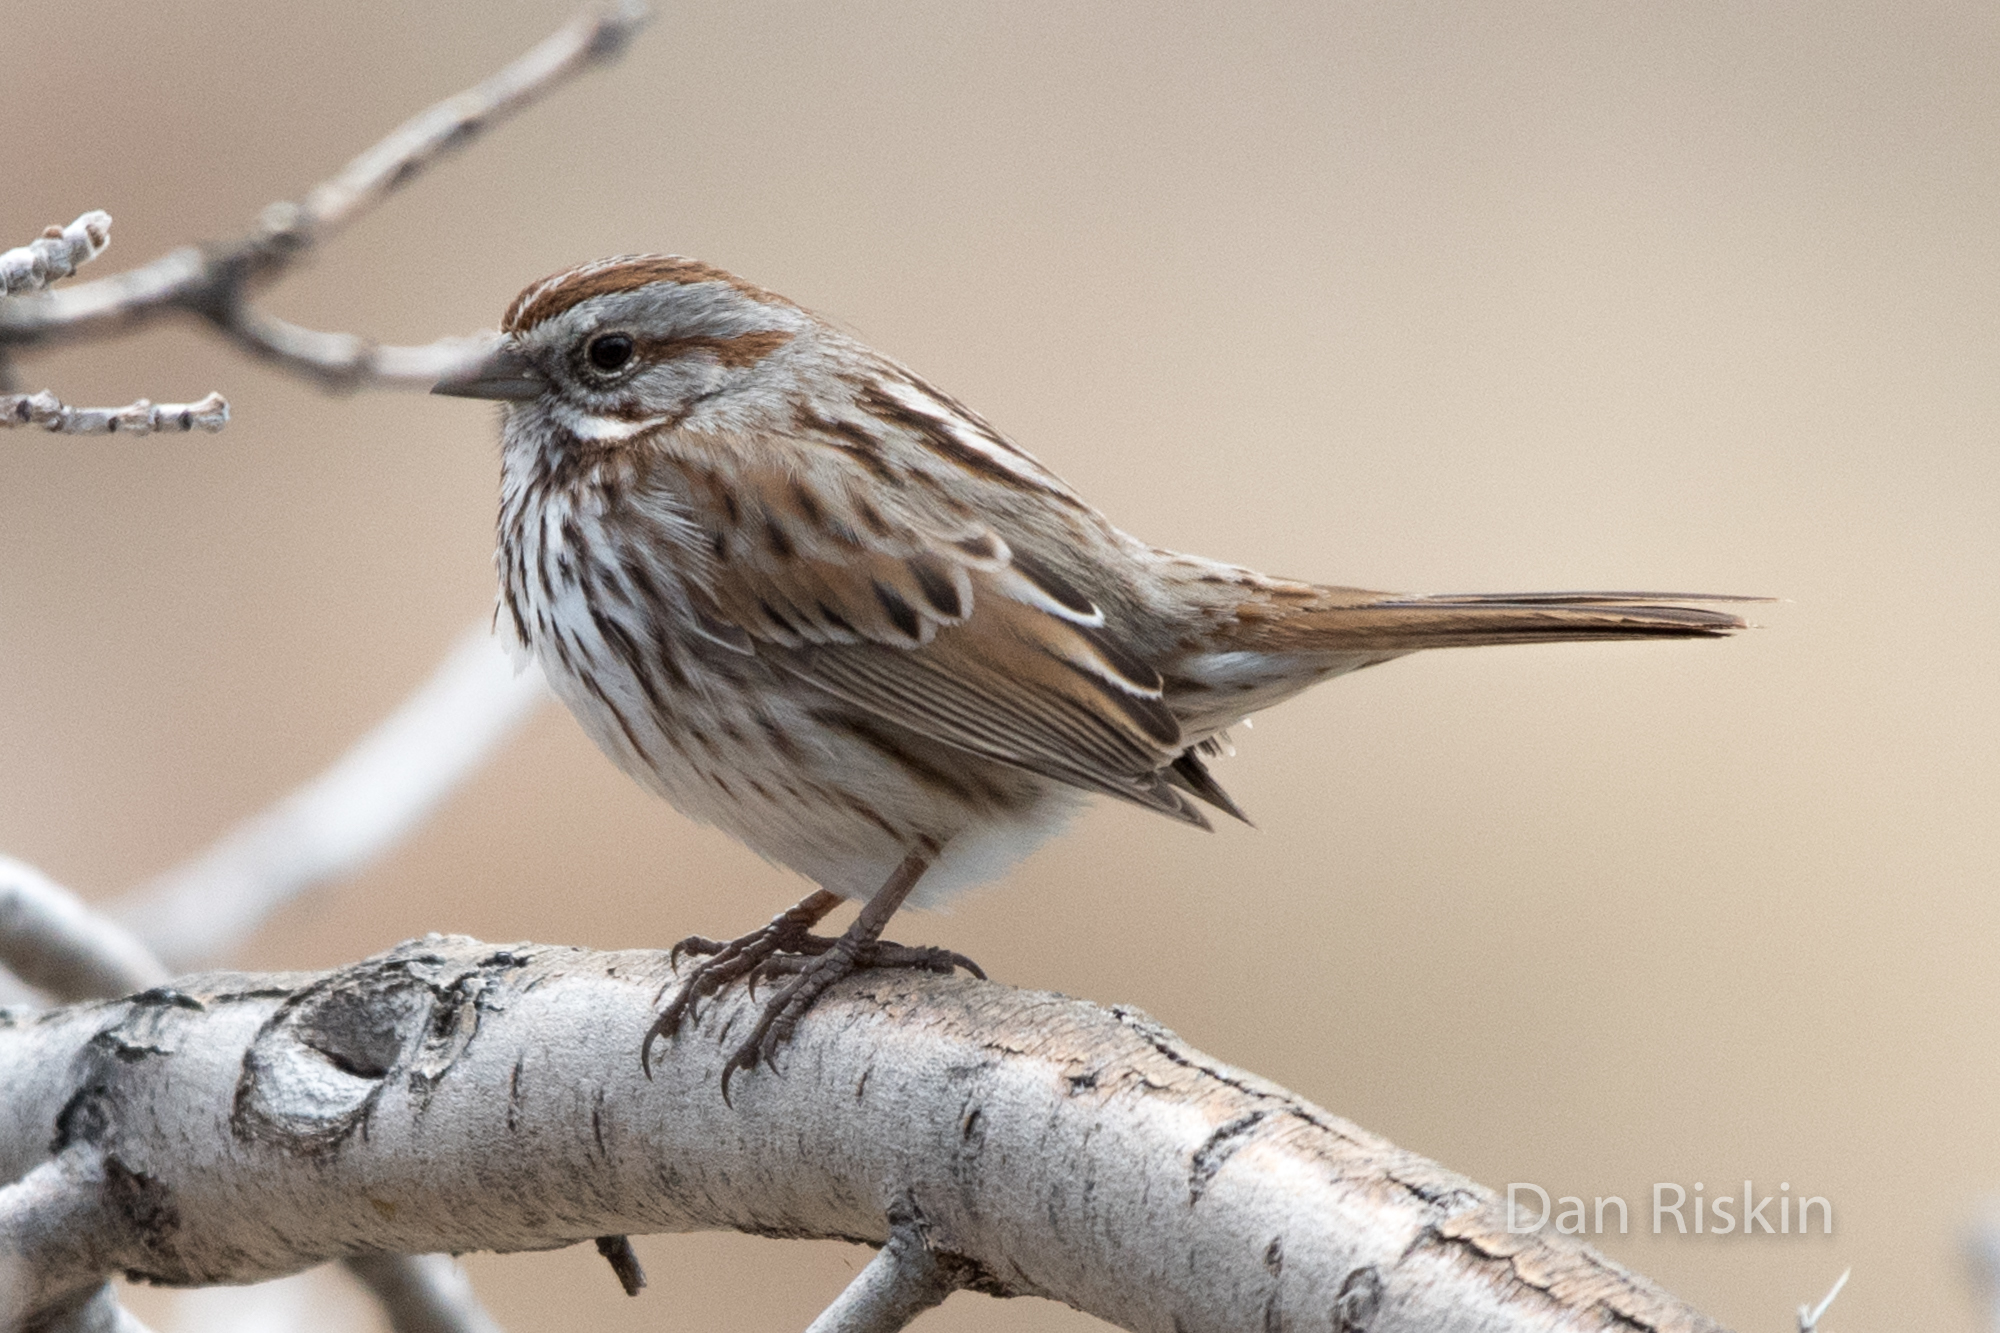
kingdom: Animalia
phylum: Chordata
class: Aves
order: Passeriformes
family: Passerellidae
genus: Melospiza
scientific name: Melospiza melodia
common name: Song sparrow
